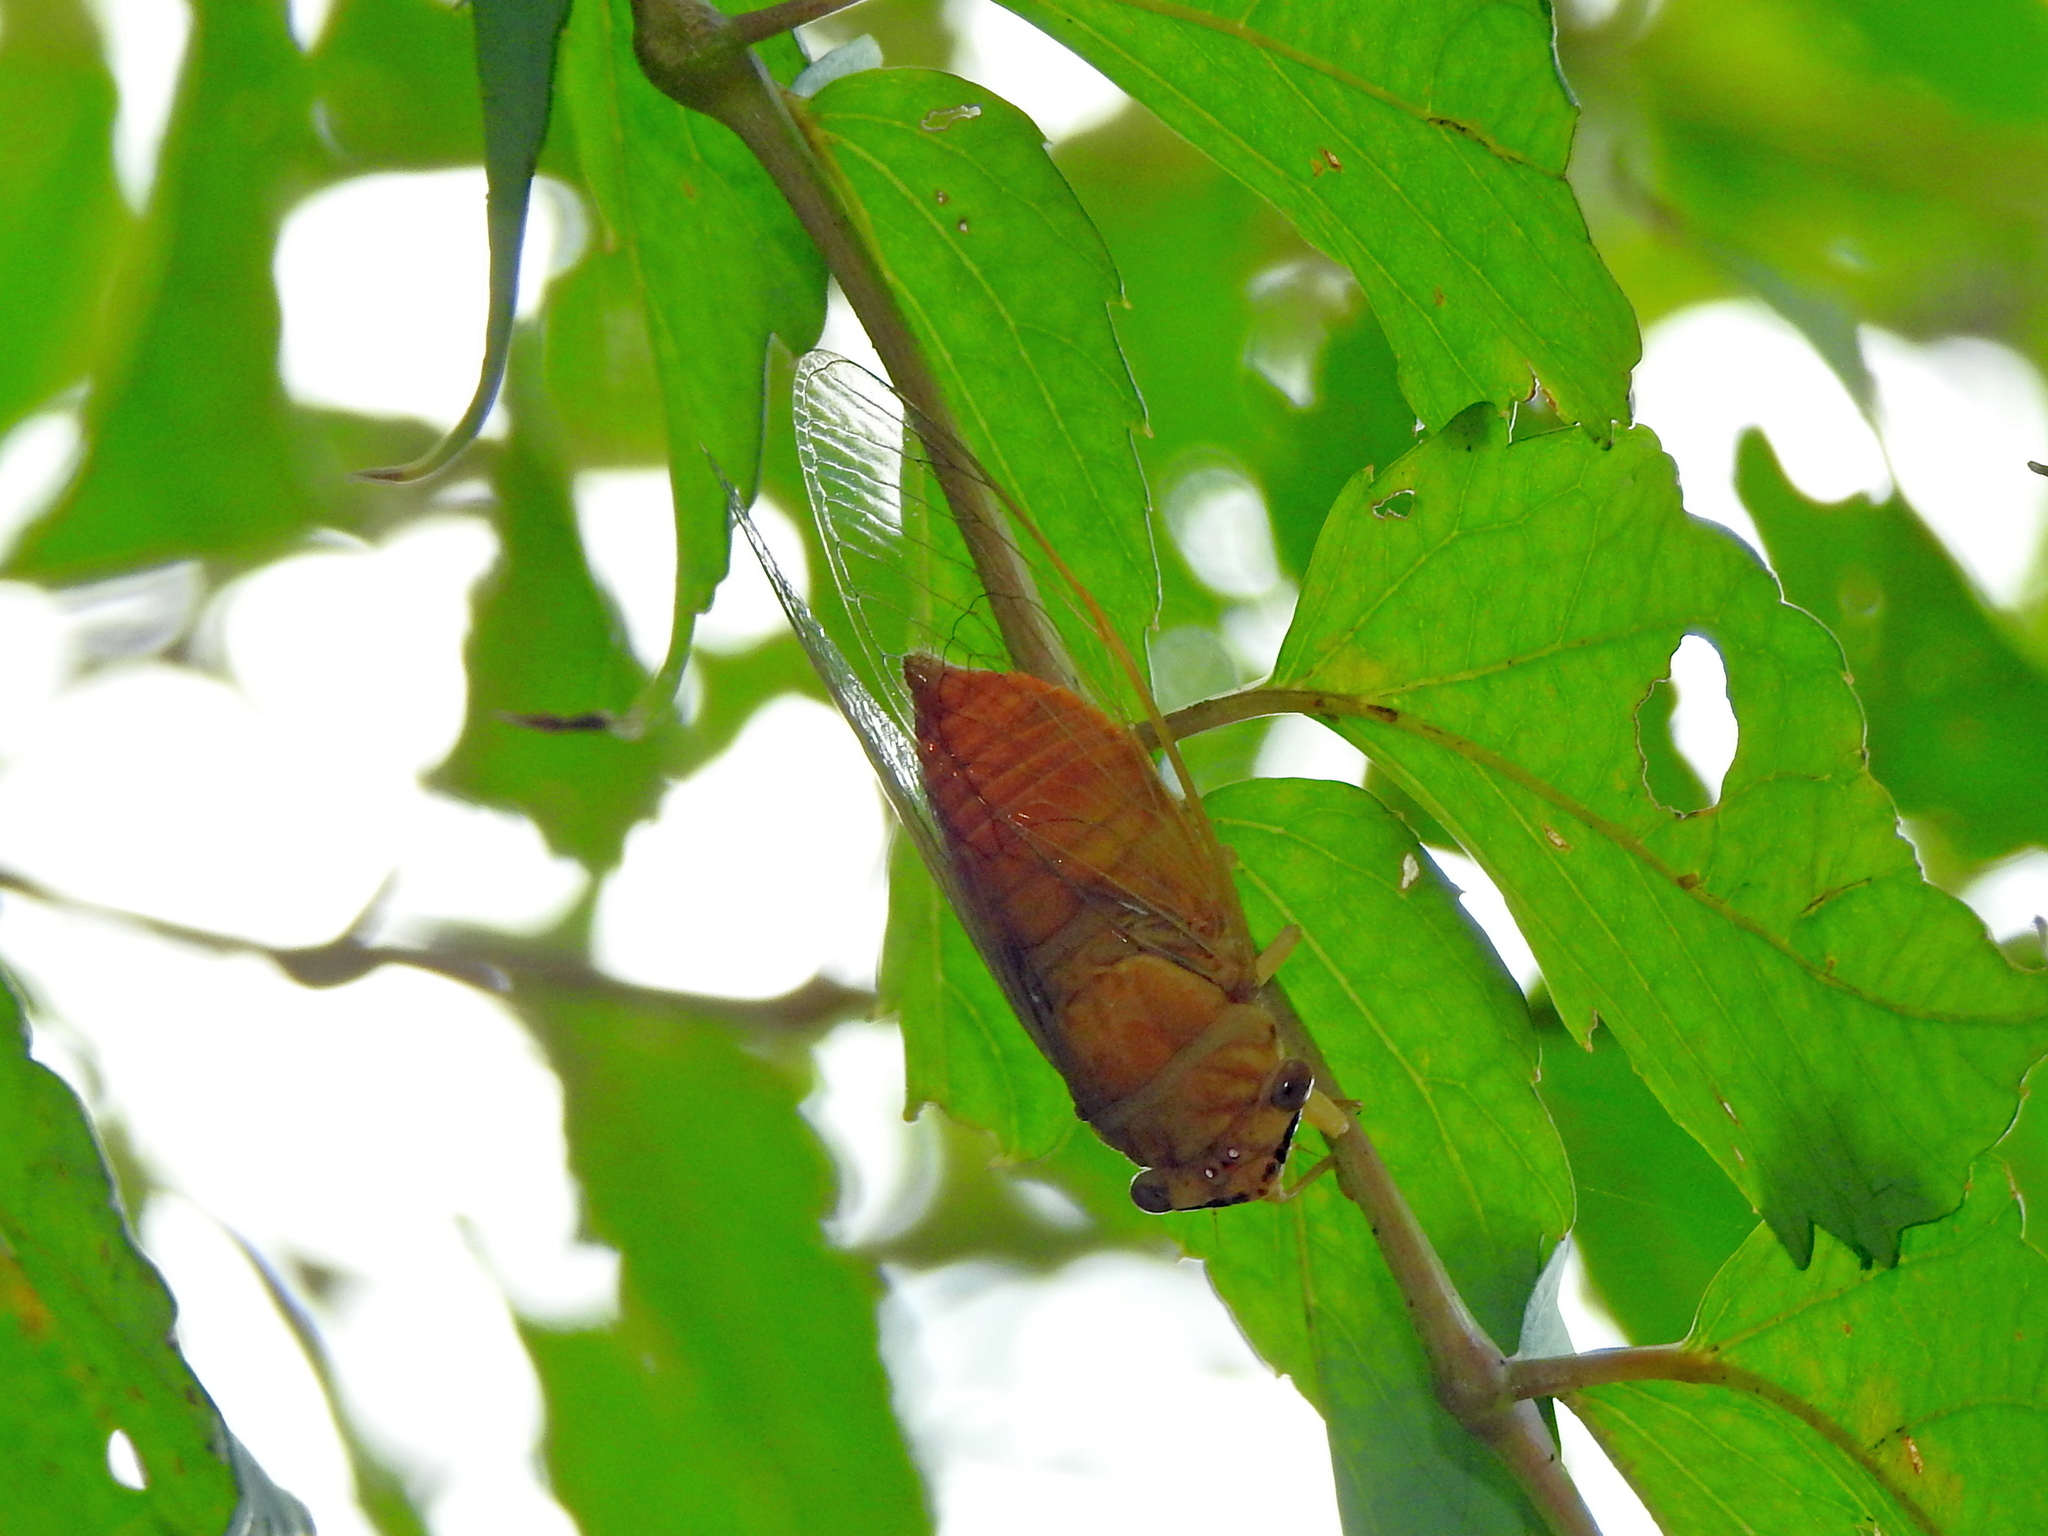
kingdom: Animalia
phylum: Arthropoda
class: Insecta
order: Hemiptera
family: Cicadidae
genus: Chremistica
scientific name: Chremistica ochracea
